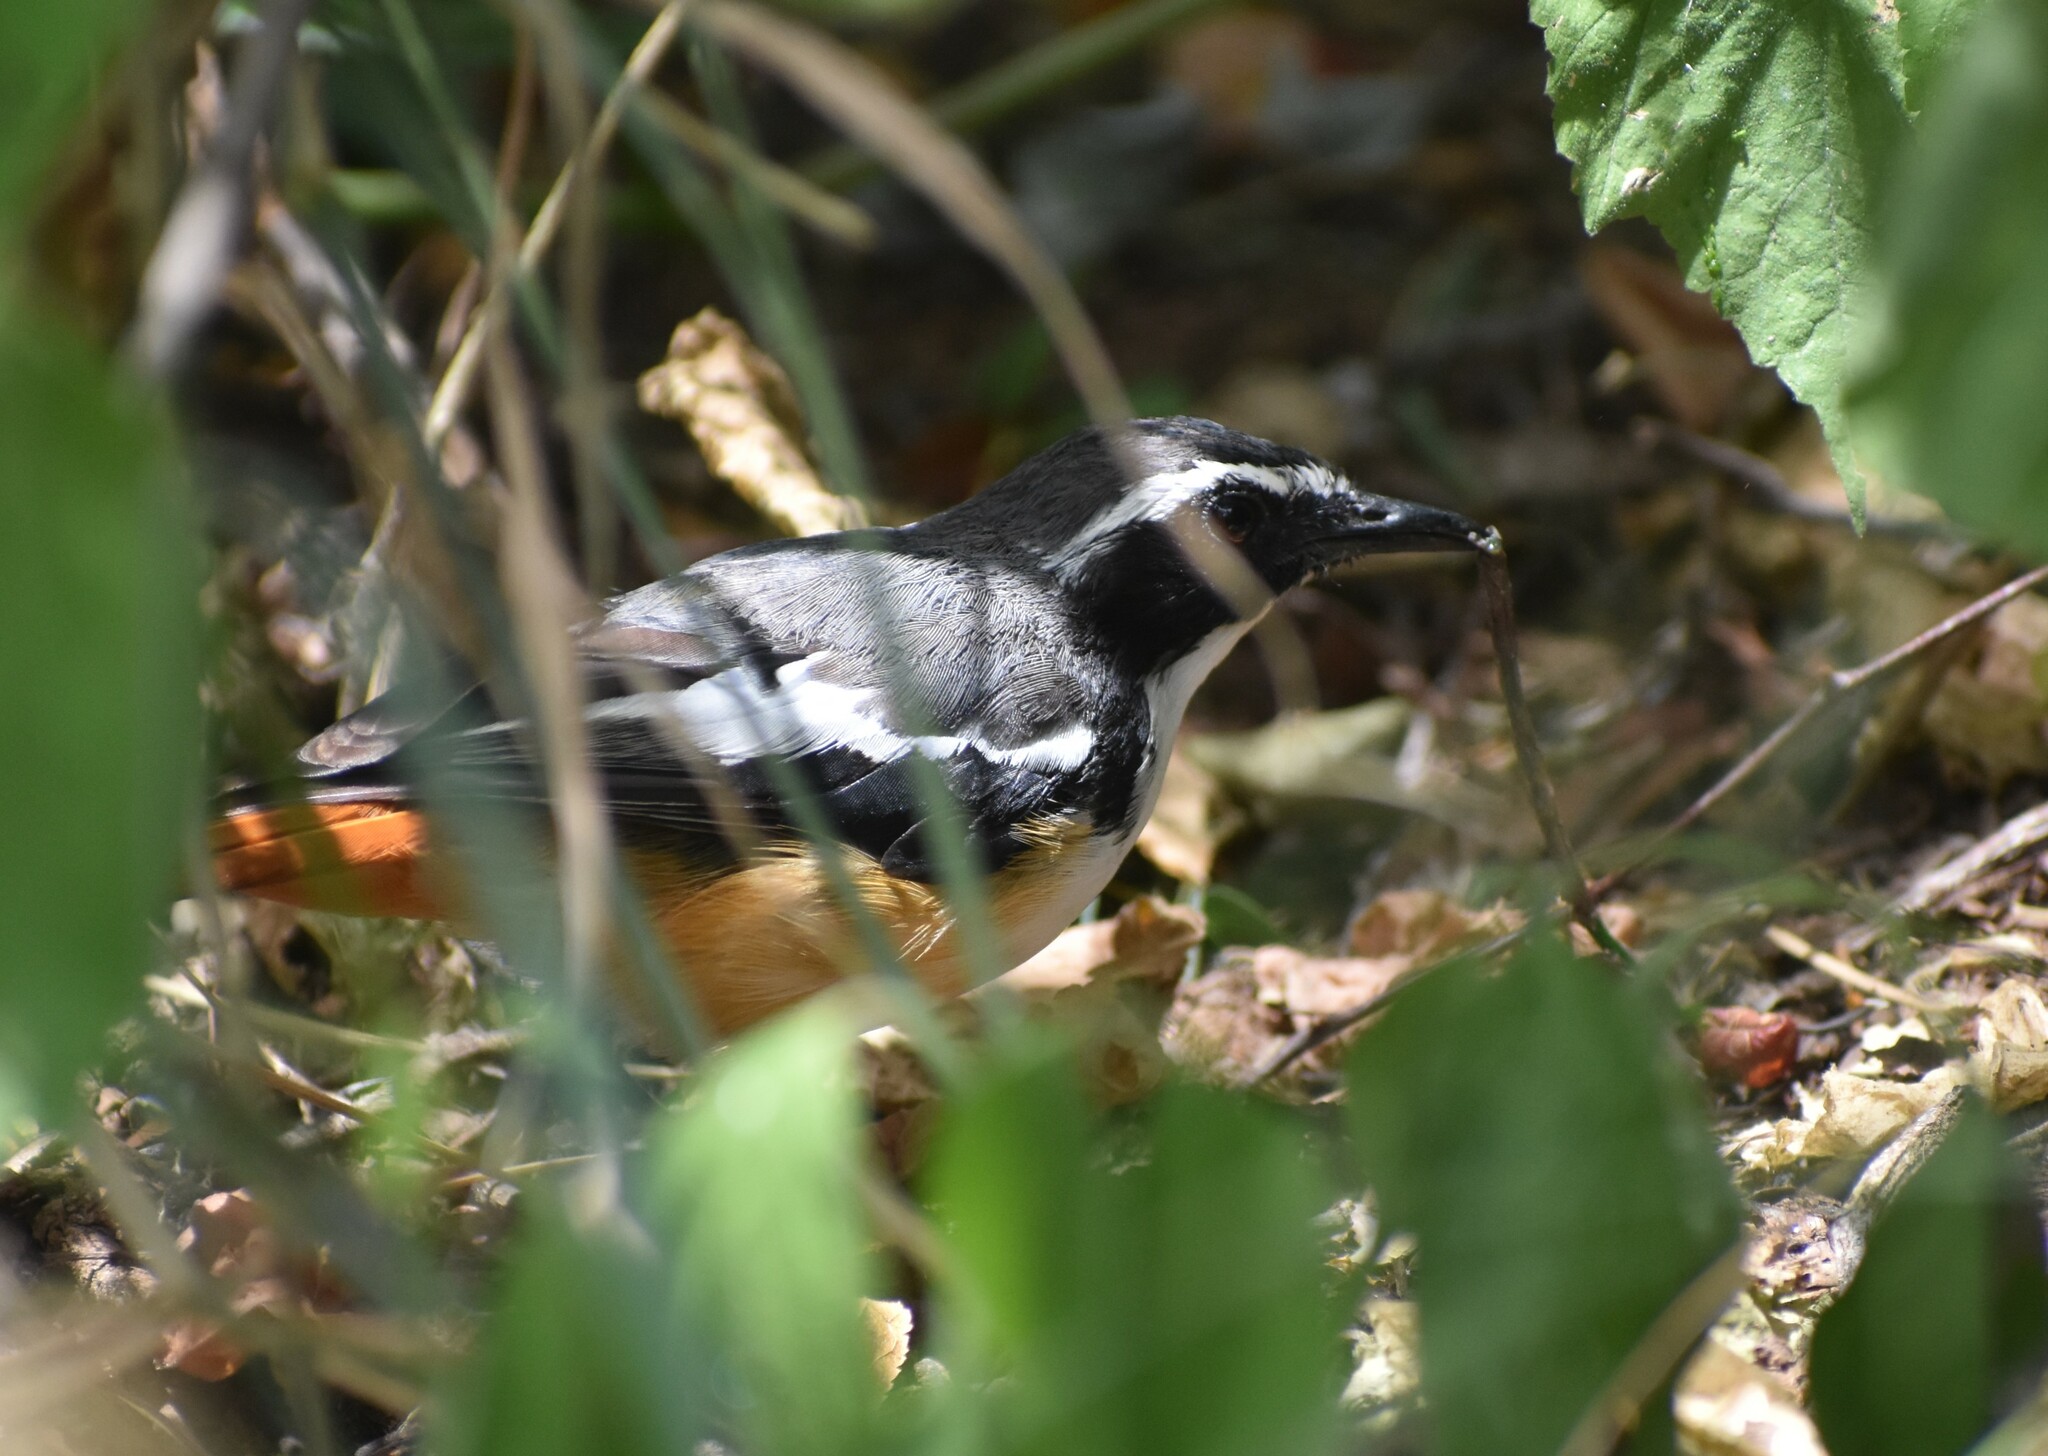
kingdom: Animalia
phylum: Chordata
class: Aves
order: Passeriformes
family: Muscicapidae
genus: Cossypha
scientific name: Cossypha humeralis
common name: White-throated robin-chat
